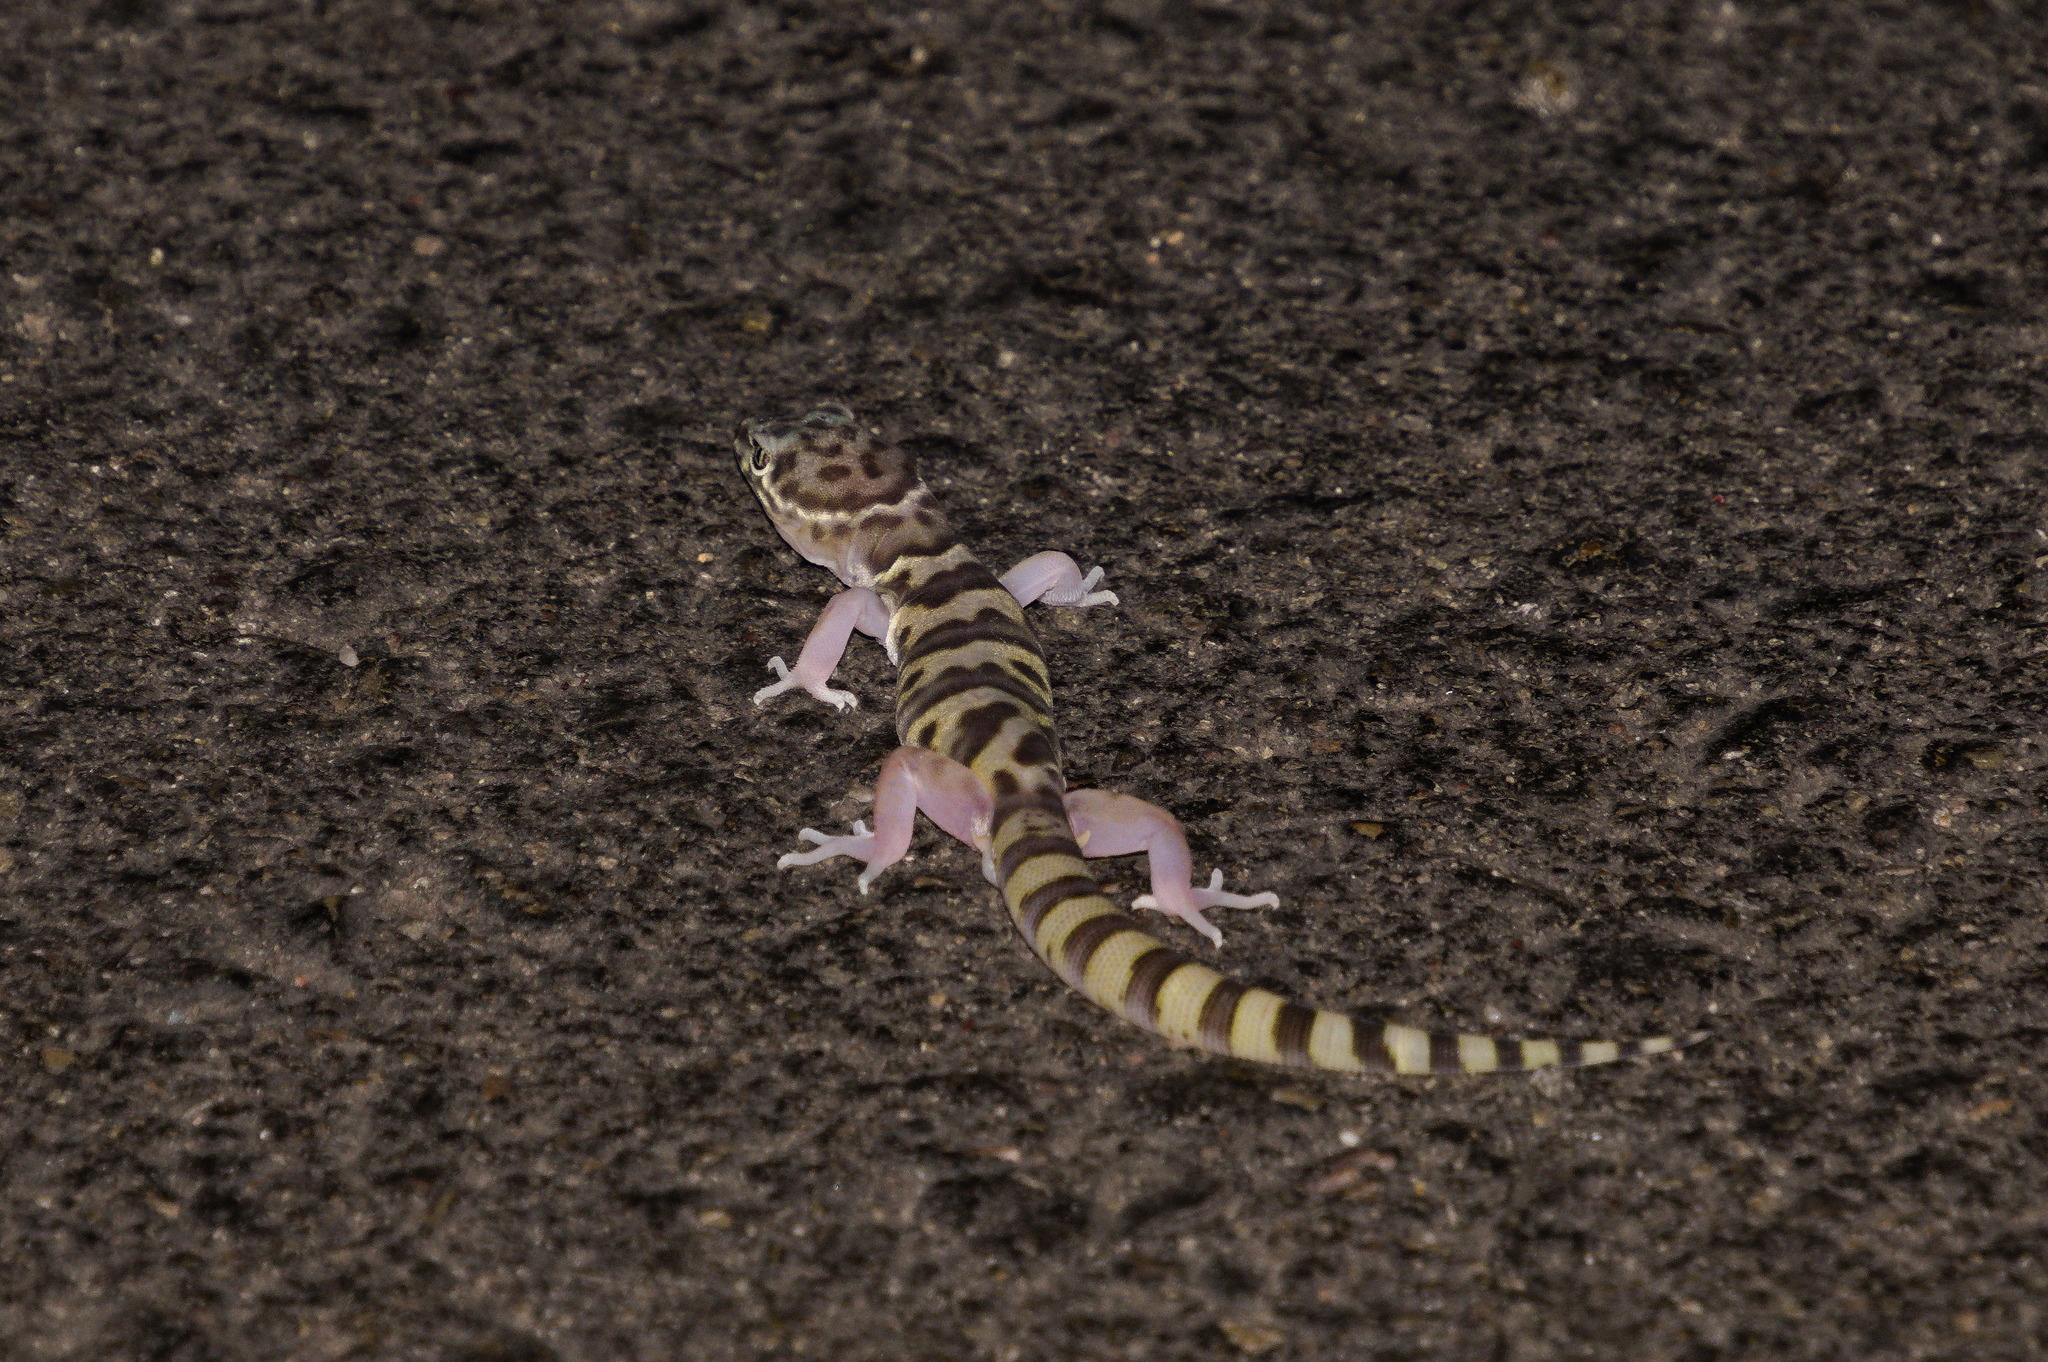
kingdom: Animalia
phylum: Chordata
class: Squamata
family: Eublepharidae
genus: Coleonyx
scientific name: Coleonyx variegatus
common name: Western banded gecko
